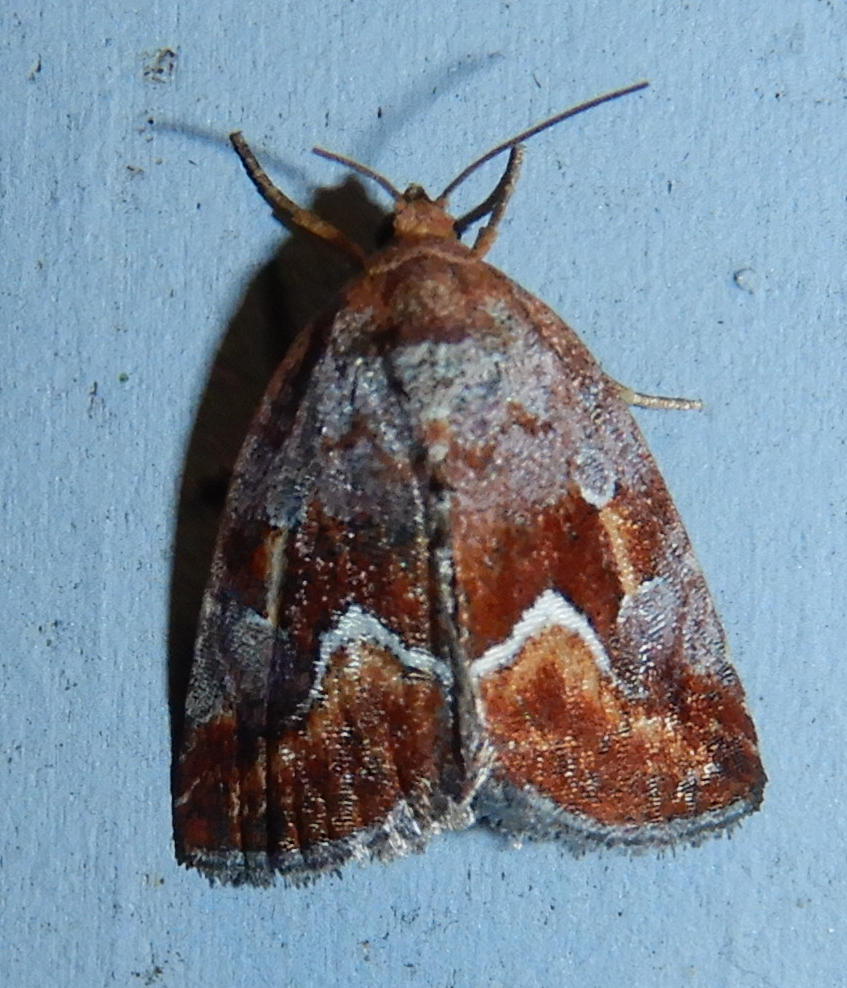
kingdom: Animalia
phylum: Arthropoda
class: Insecta
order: Lepidoptera
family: Noctuidae
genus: Deltote
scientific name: Deltote bellicula
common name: Bog glyph
